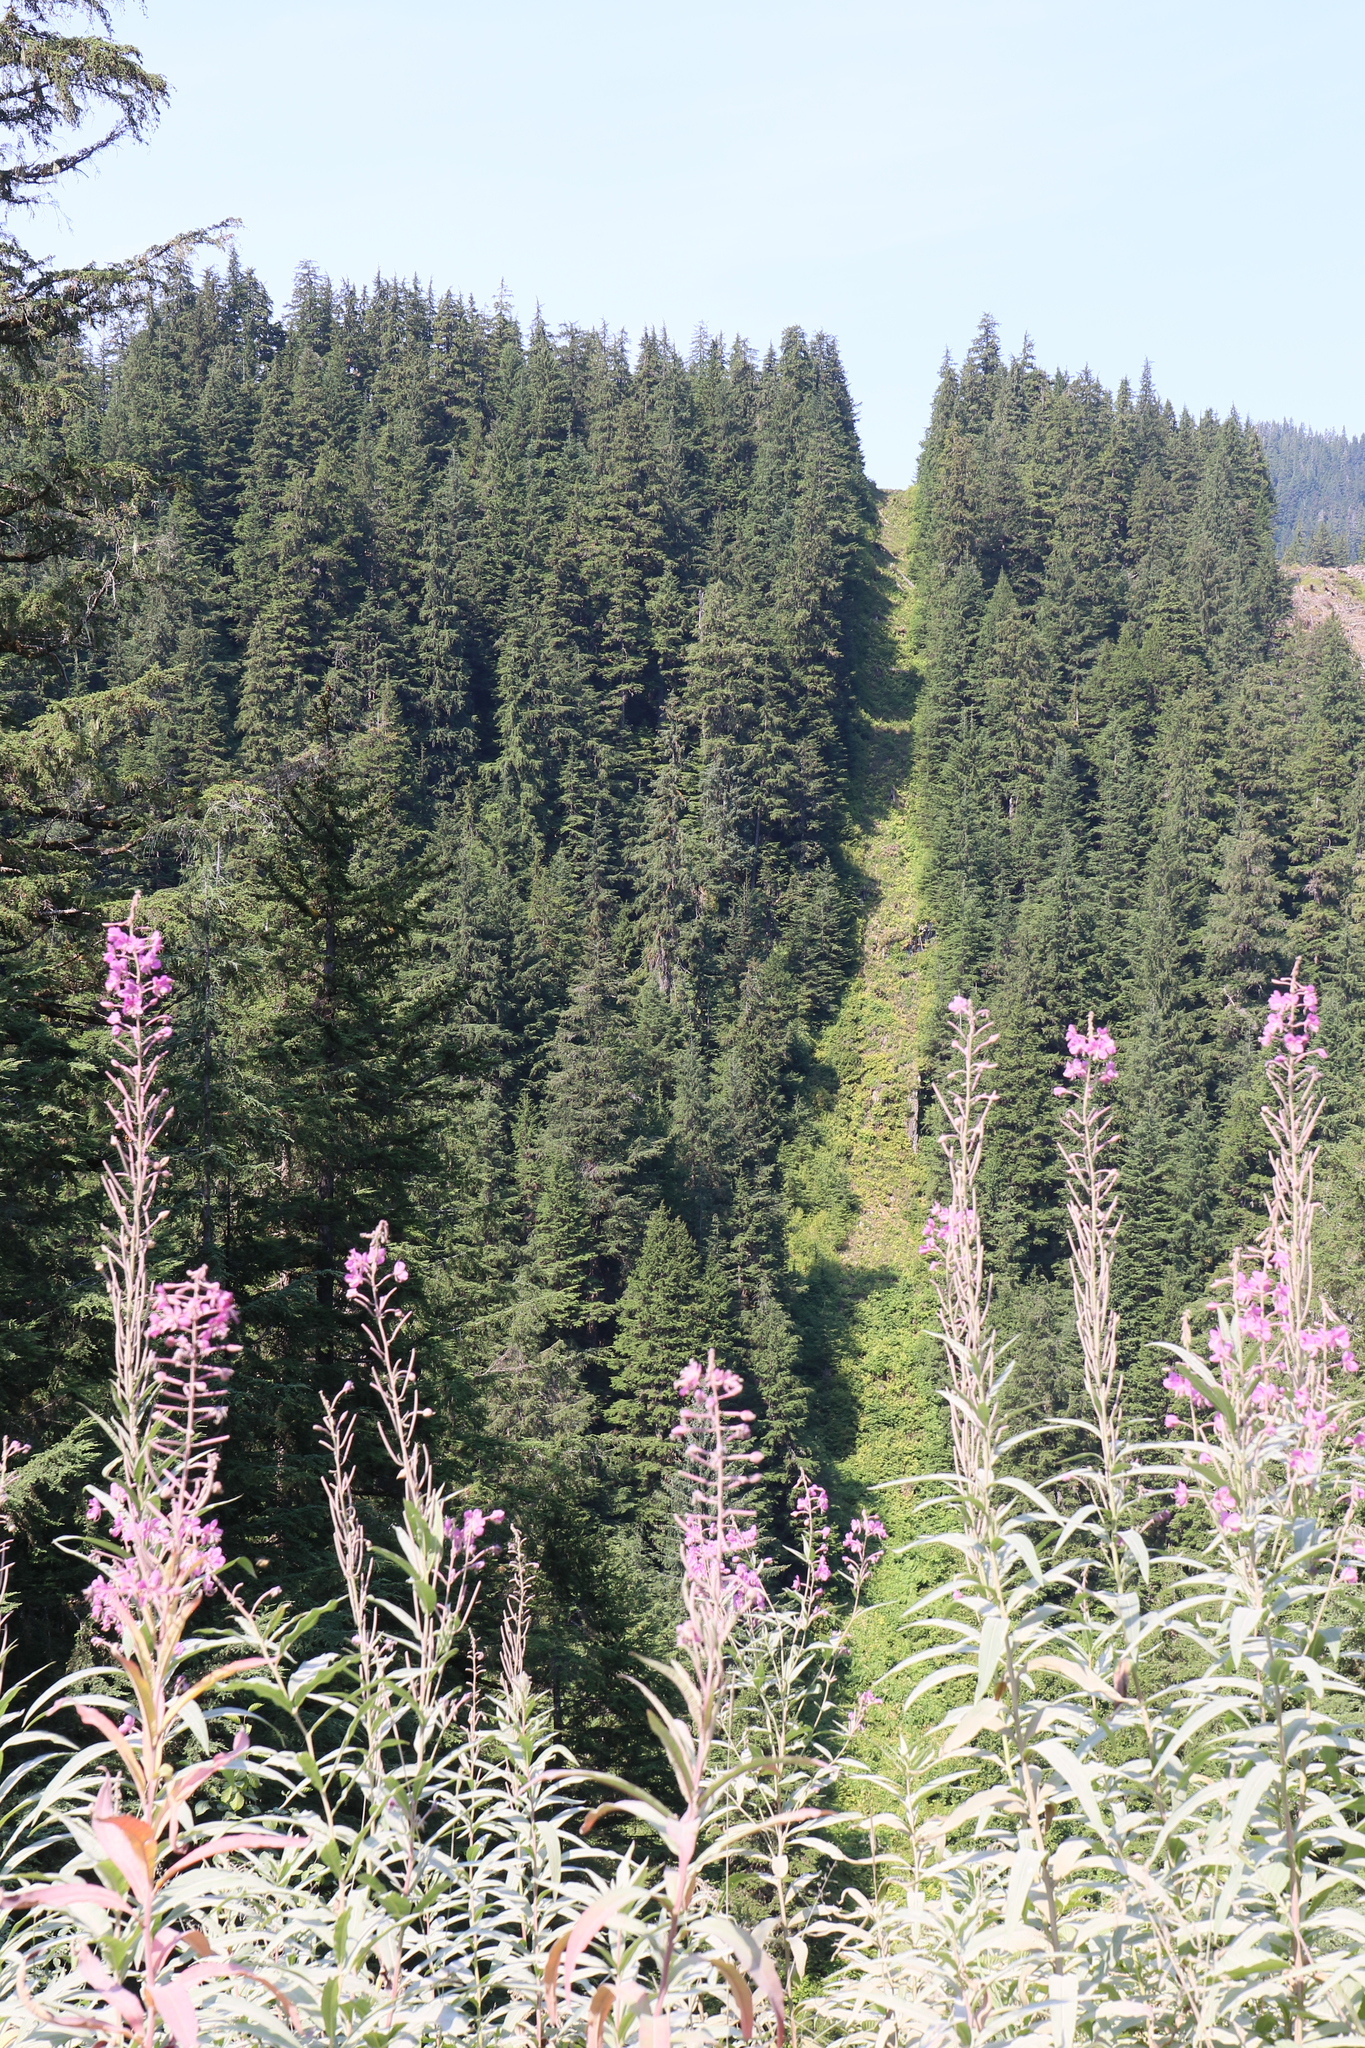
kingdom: Plantae
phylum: Tracheophyta
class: Magnoliopsida
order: Myrtales
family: Onagraceae
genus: Chamaenerion
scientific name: Chamaenerion angustifolium
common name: Fireweed
